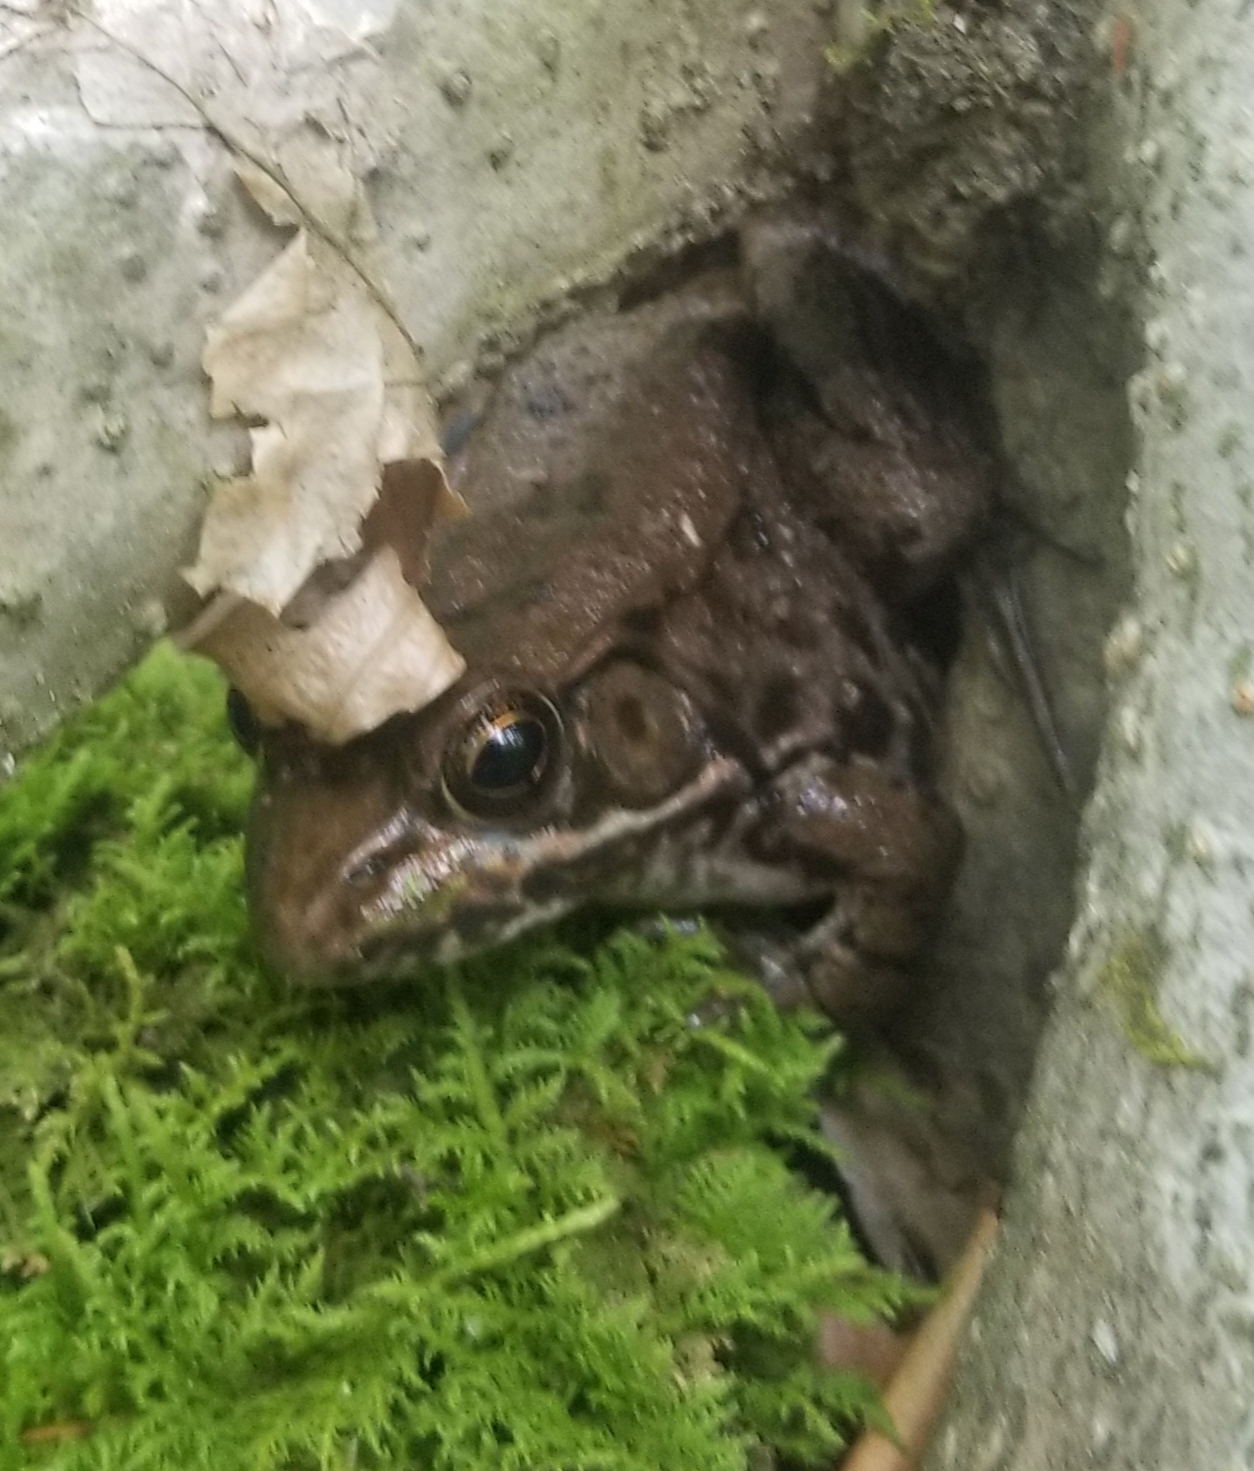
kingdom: Animalia
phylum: Chordata
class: Amphibia
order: Anura
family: Ranidae
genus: Lithobates
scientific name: Lithobates clamitans
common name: Green frog
